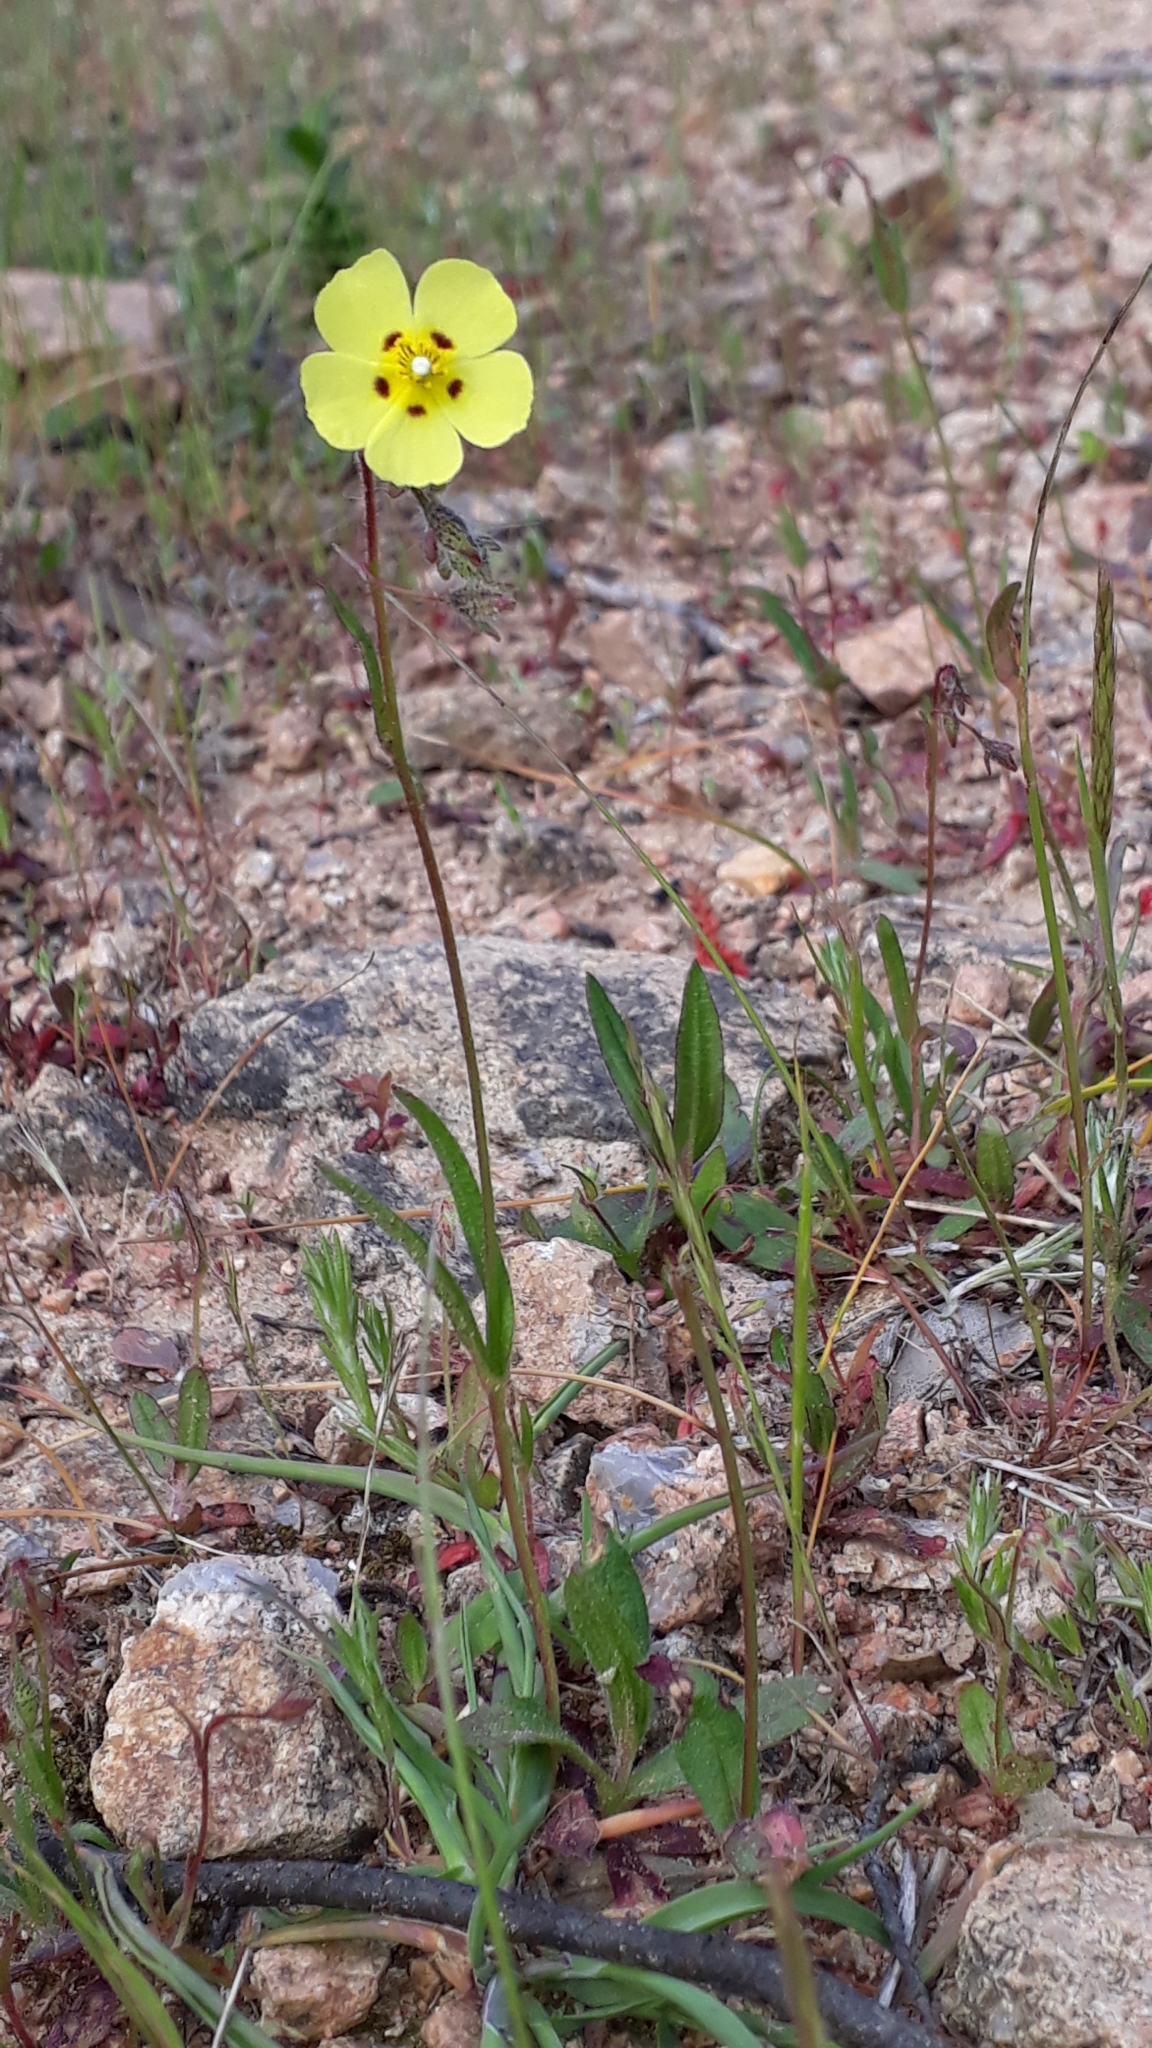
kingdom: Plantae
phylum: Tracheophyta
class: Magnoliopsida
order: Malvales
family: Cistaceae
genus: Tuberaria
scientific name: Tuberaria guttata
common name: Spotted rock-rose
